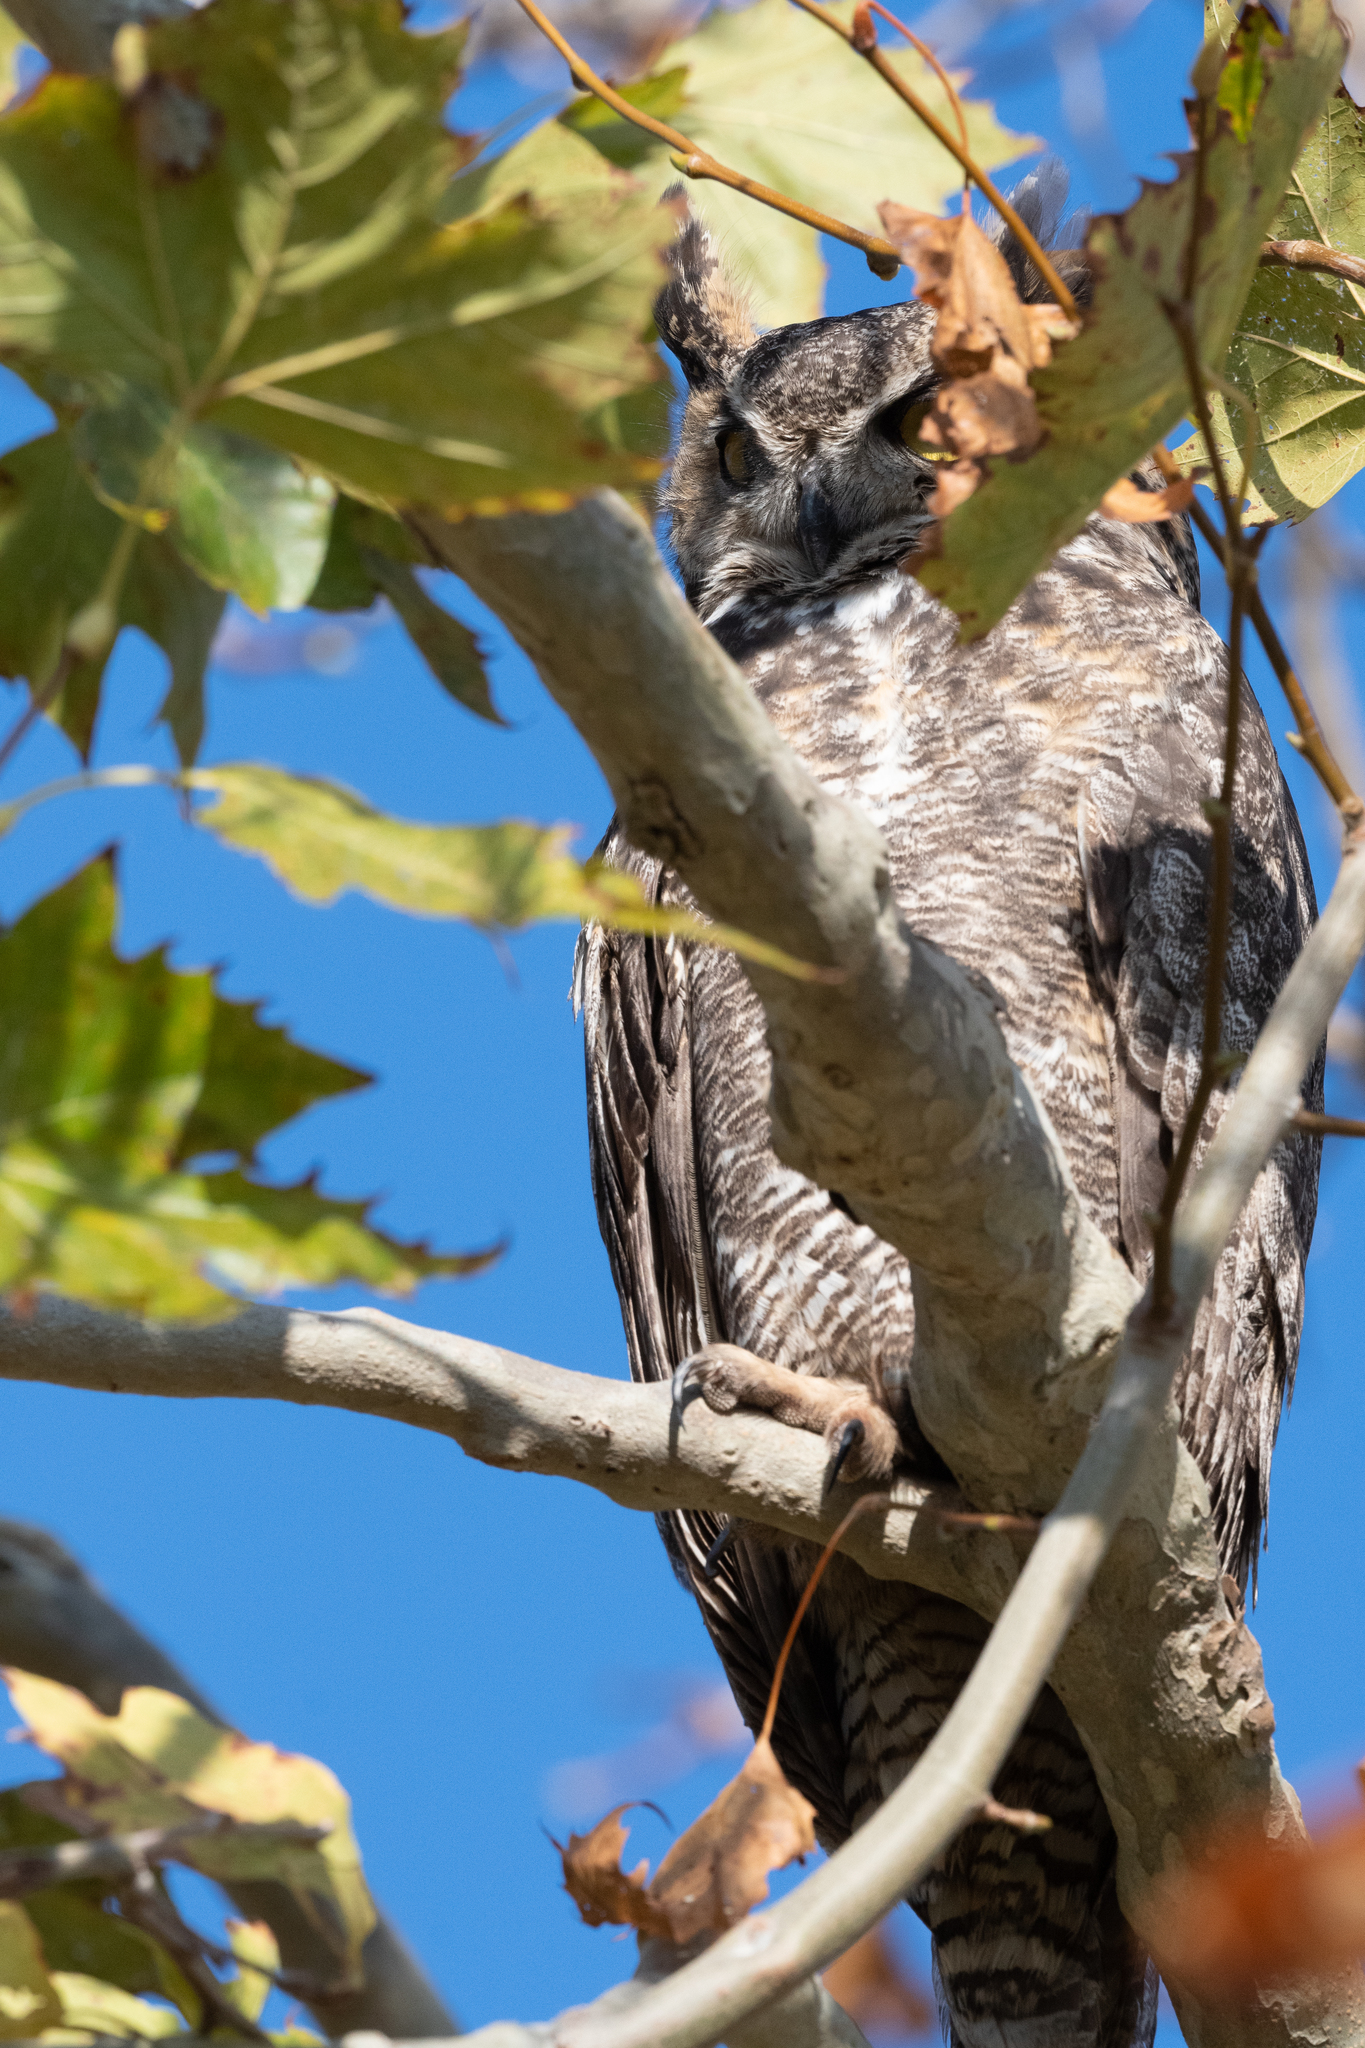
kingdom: Animalia
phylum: Chordata
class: Aves
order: Strigiformes
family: Strigidae
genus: Bubo
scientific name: Bubo virginianus
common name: Great horned owl
